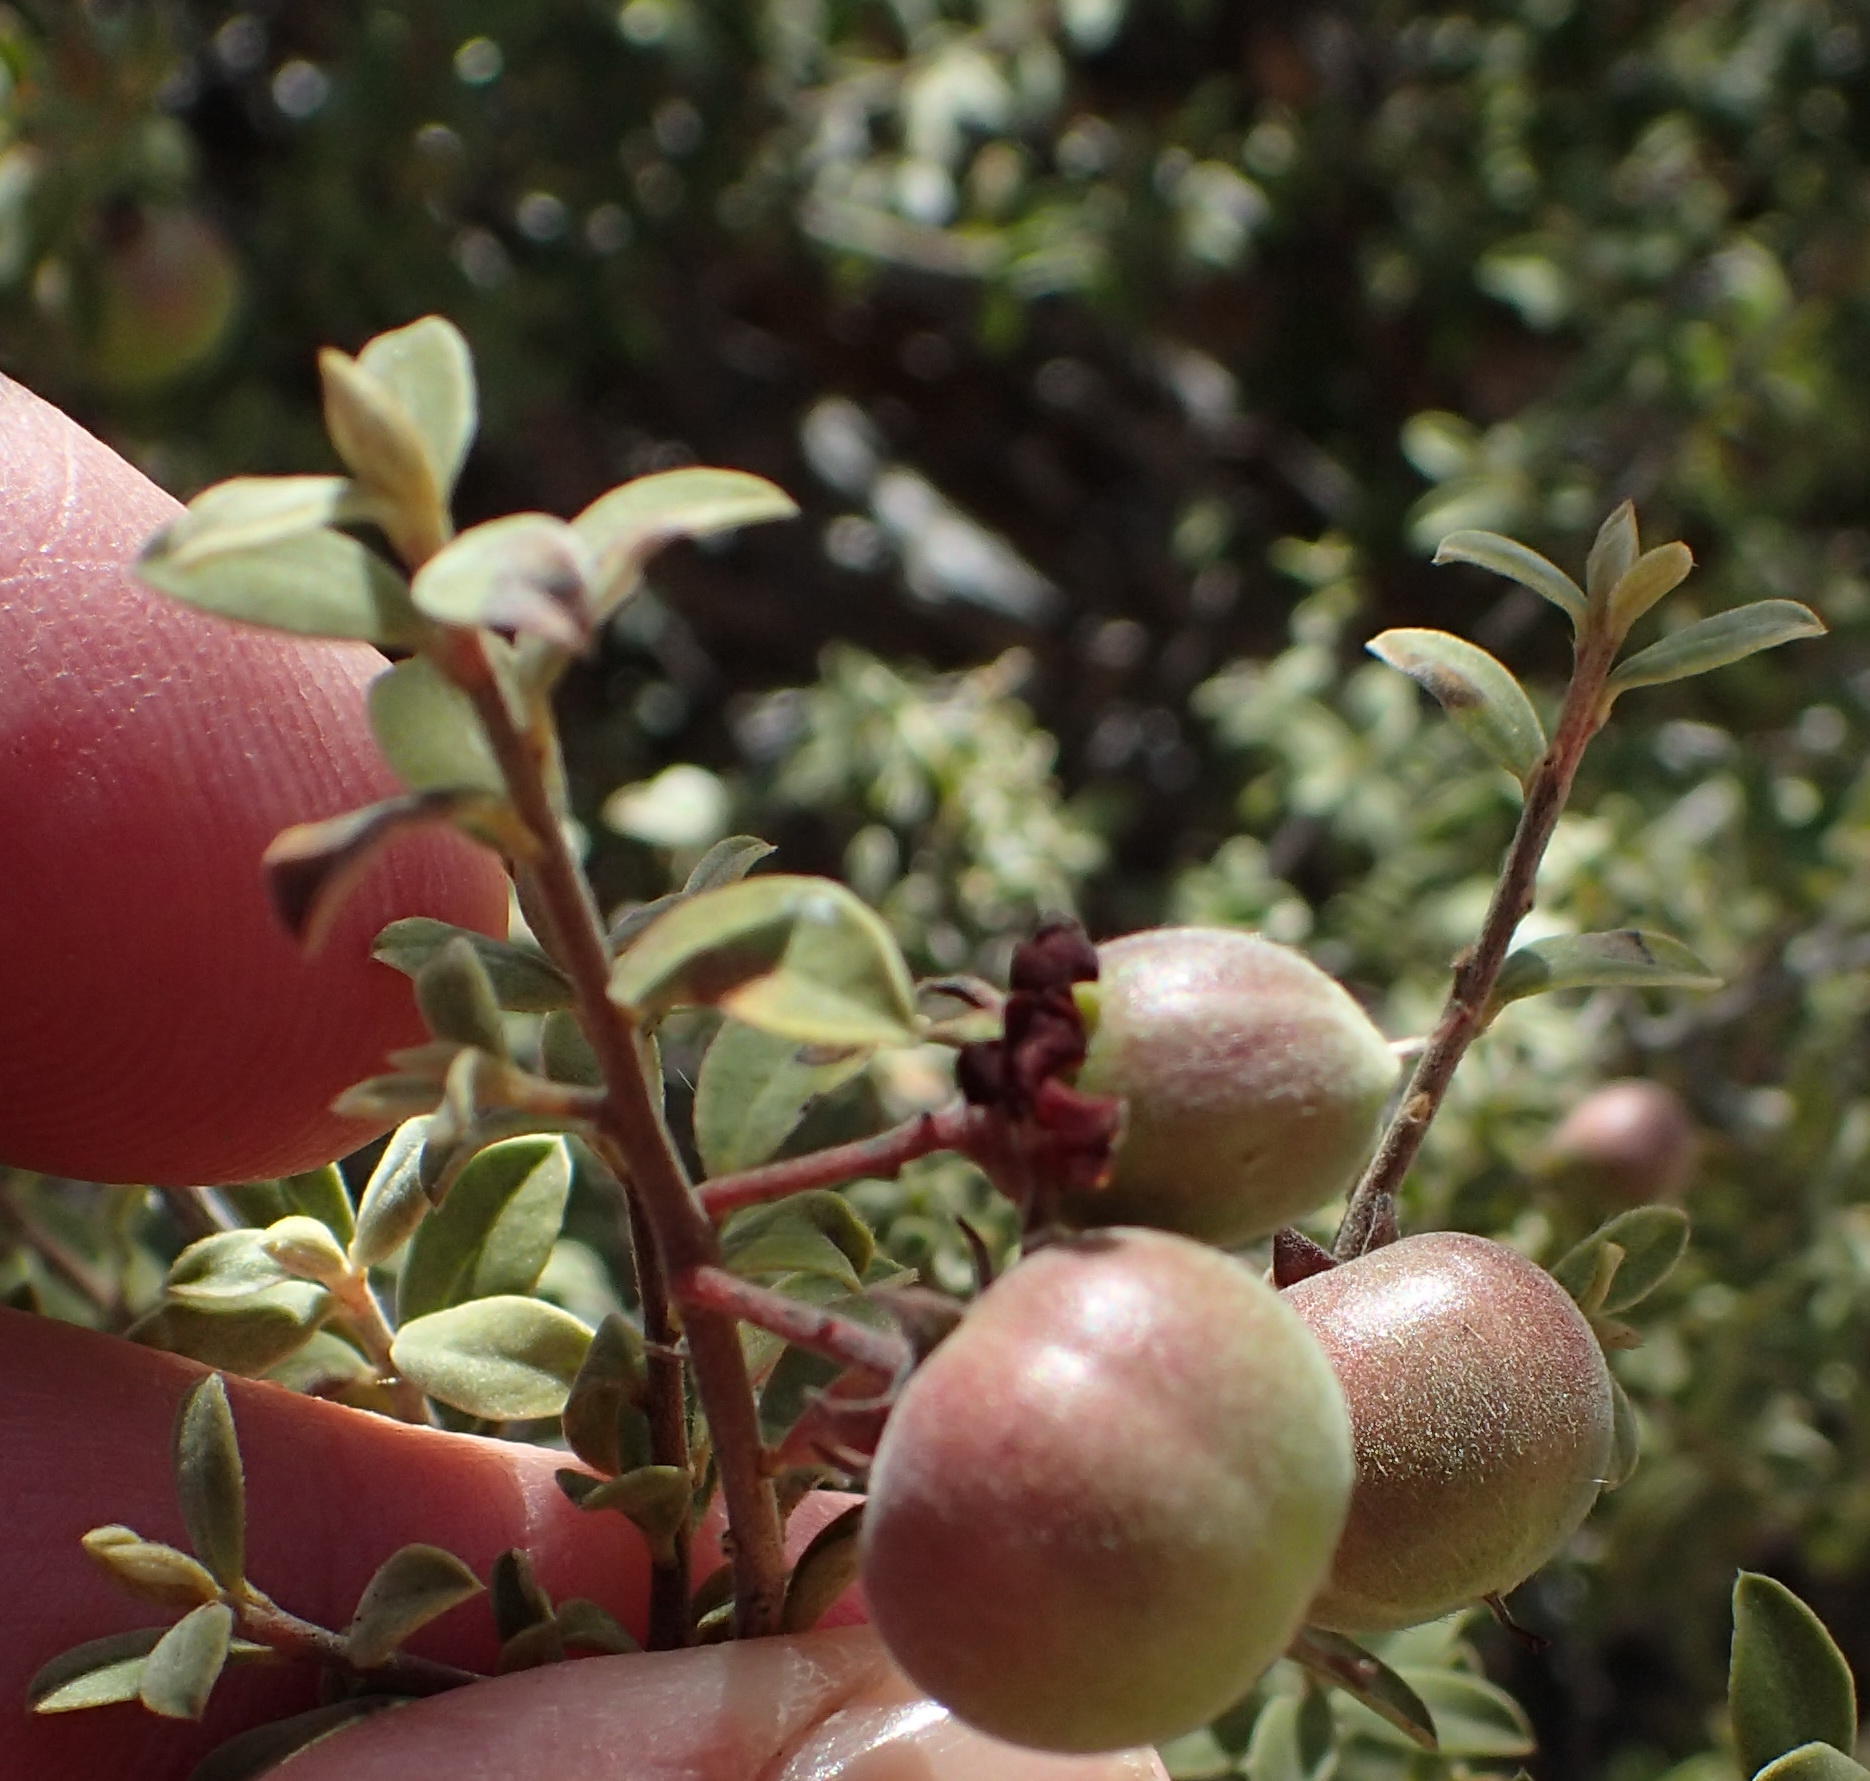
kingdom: Plantae
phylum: Tracheophyta
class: Magnoliopsida
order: Ericales
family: Ebenaceae
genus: Diospyros
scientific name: Diospyros pubescens
